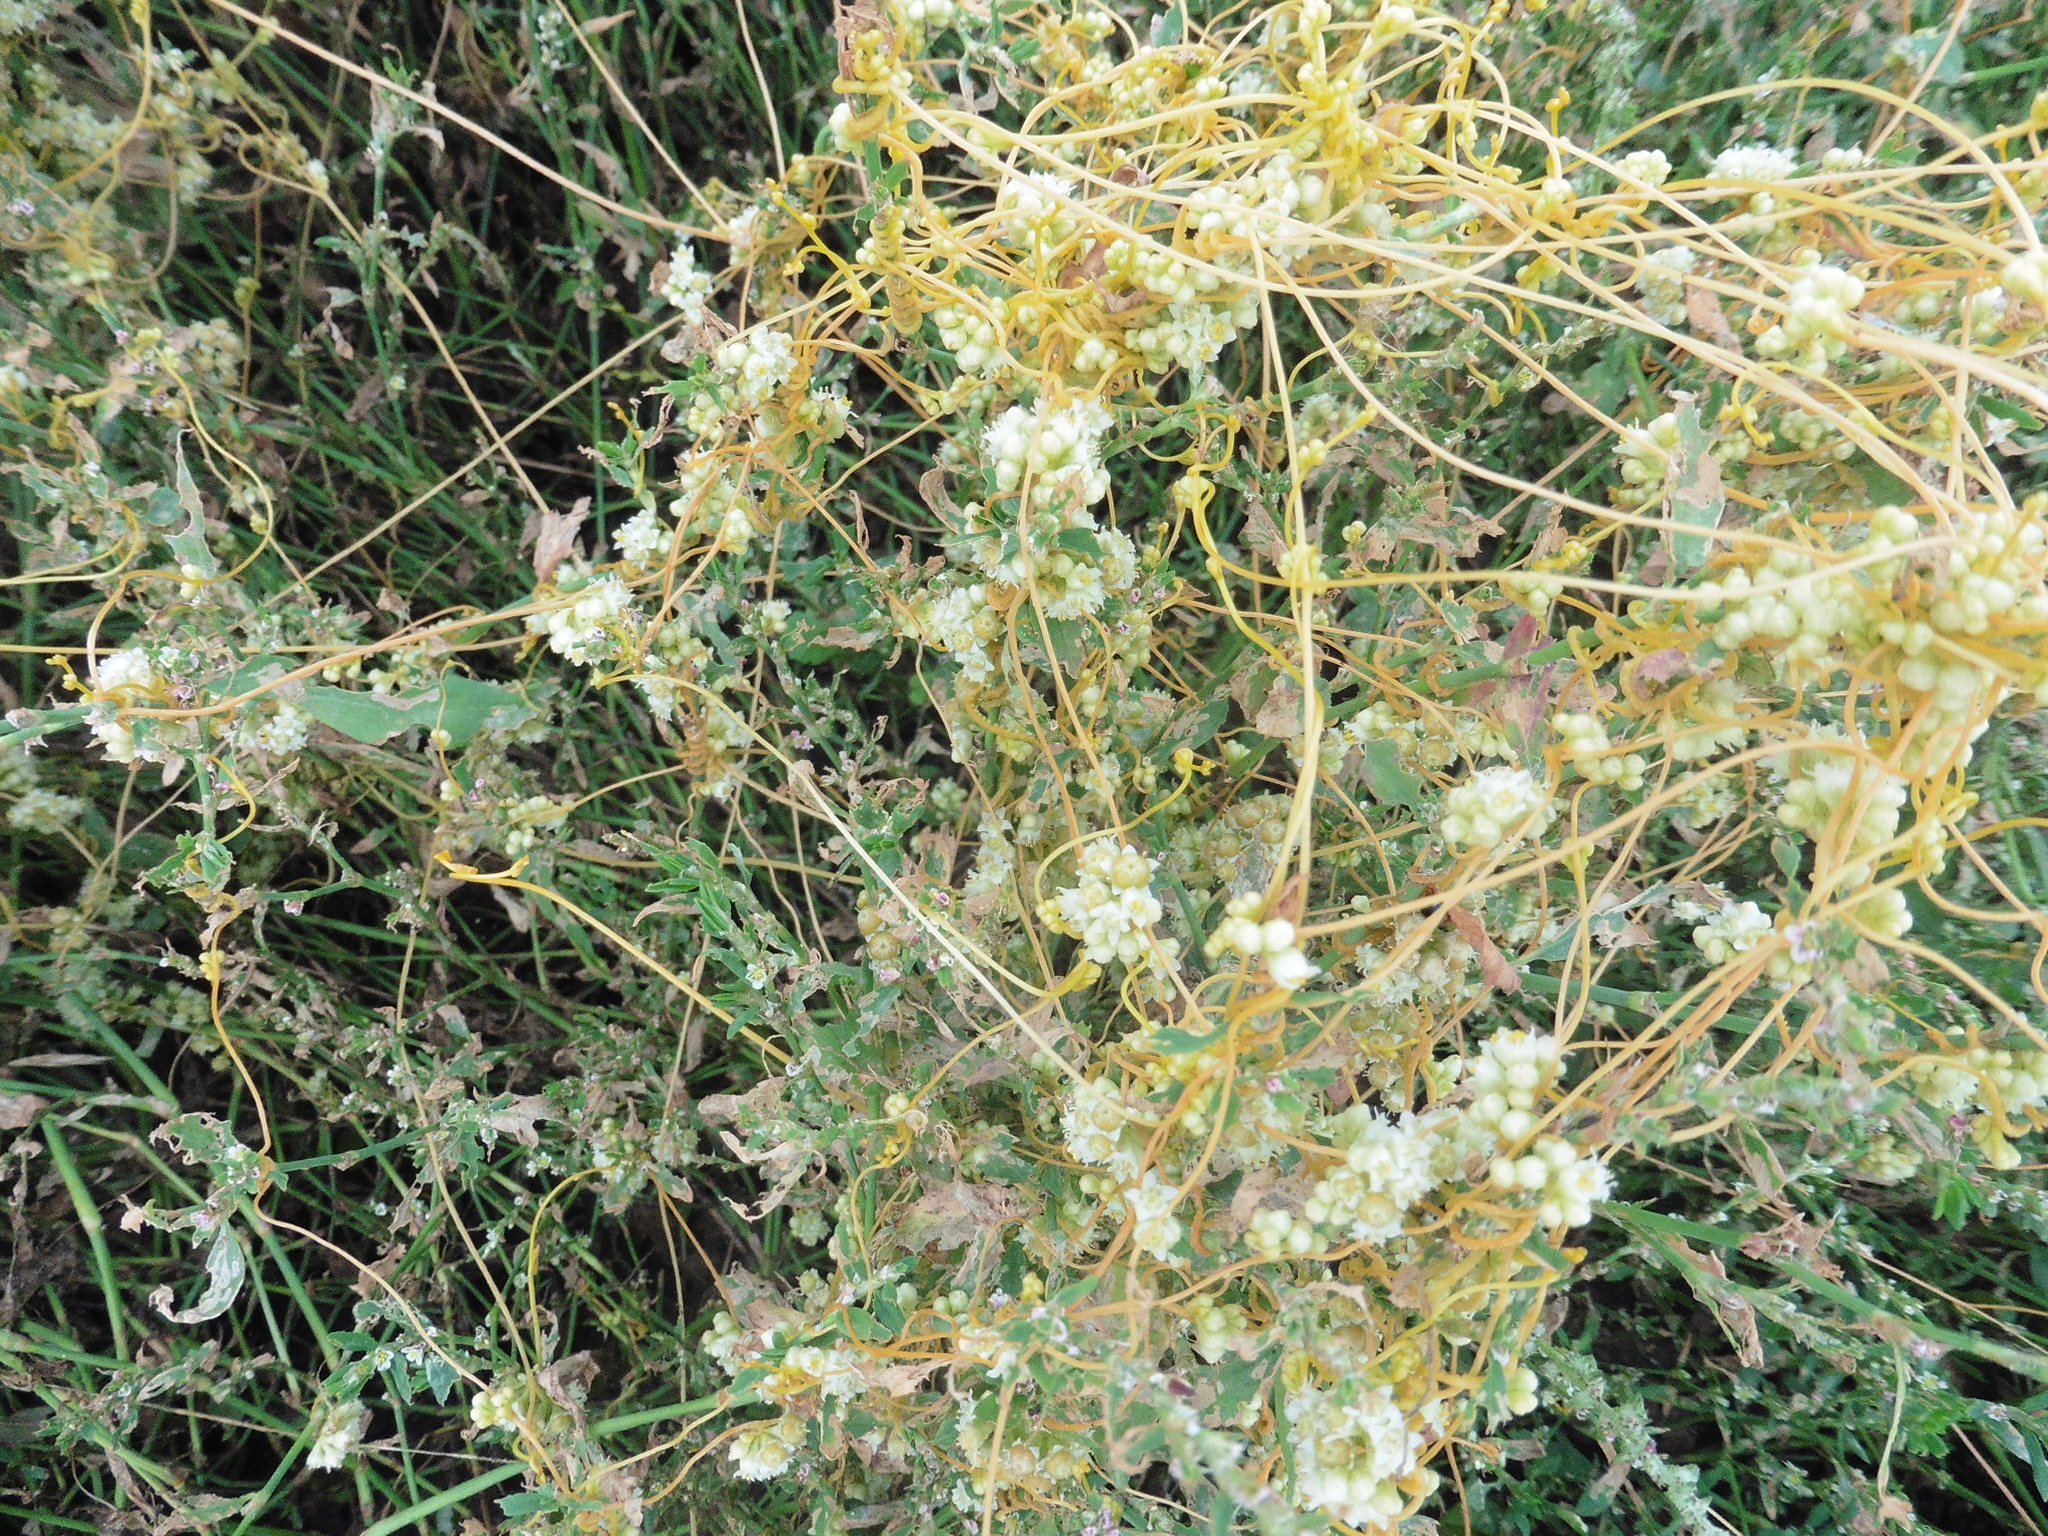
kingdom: Plantae
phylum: Tracheophyta
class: Magnoliopsida
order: Solanales
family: Convolvulaceae
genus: Cuscuta
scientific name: Cuscuta campestris
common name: Yellow dodder
